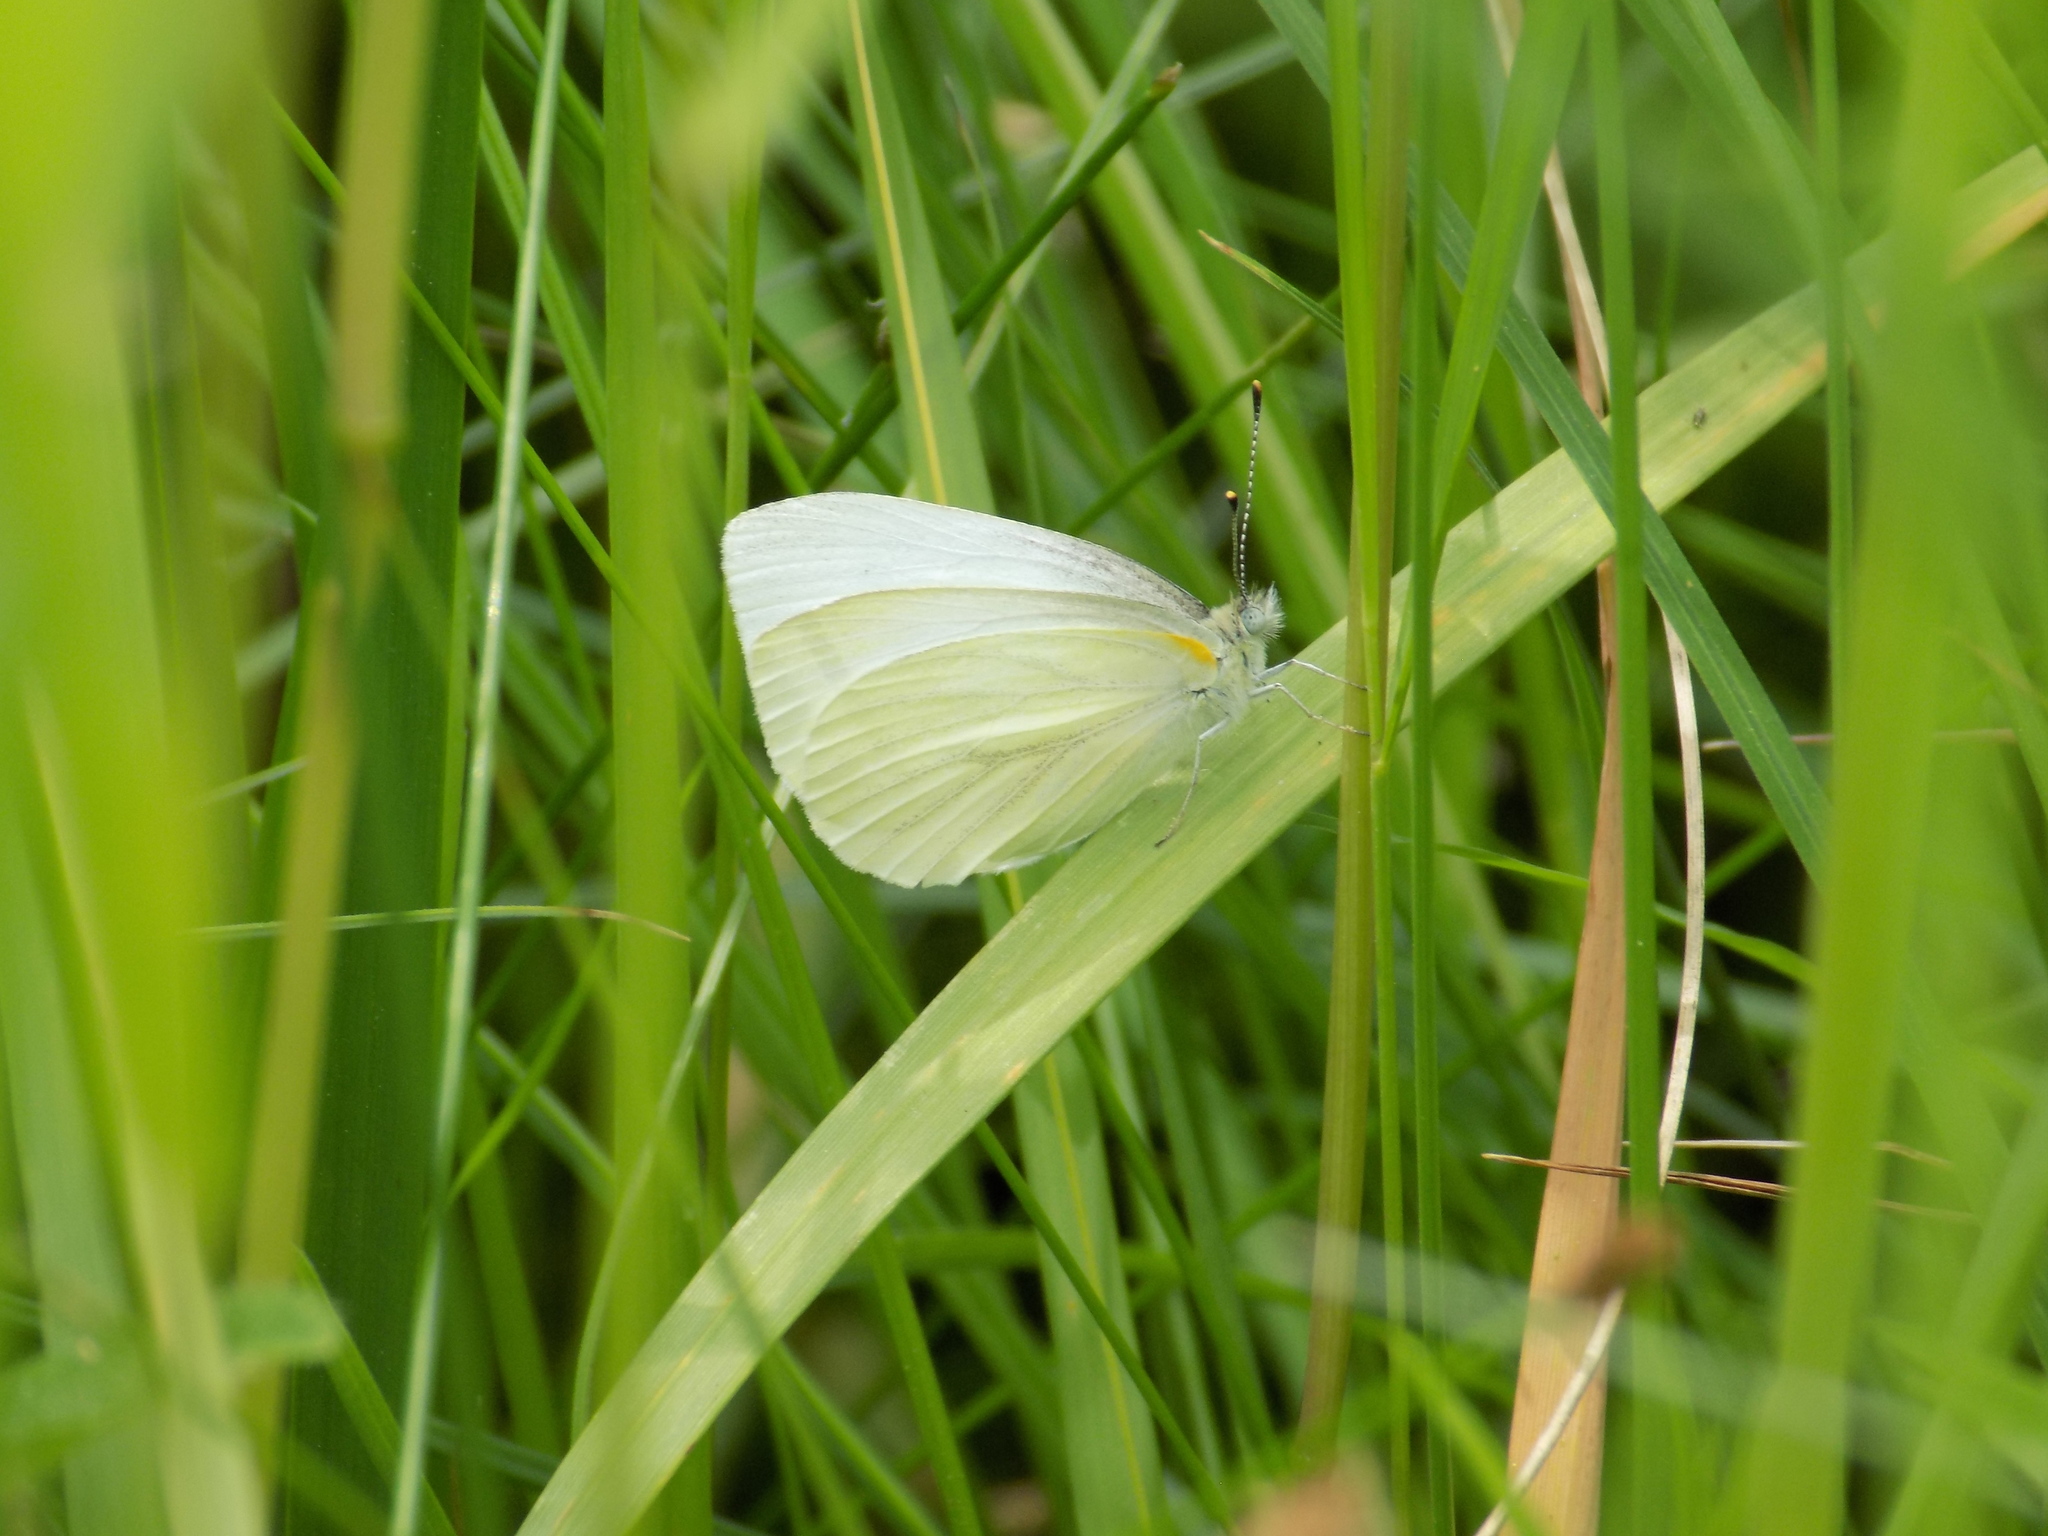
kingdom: Animalia
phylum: Arthropoda
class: Insecta
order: Lepidoptera
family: Pieridae
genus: Pieris
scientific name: Pieris oleracea
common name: Mustard white
